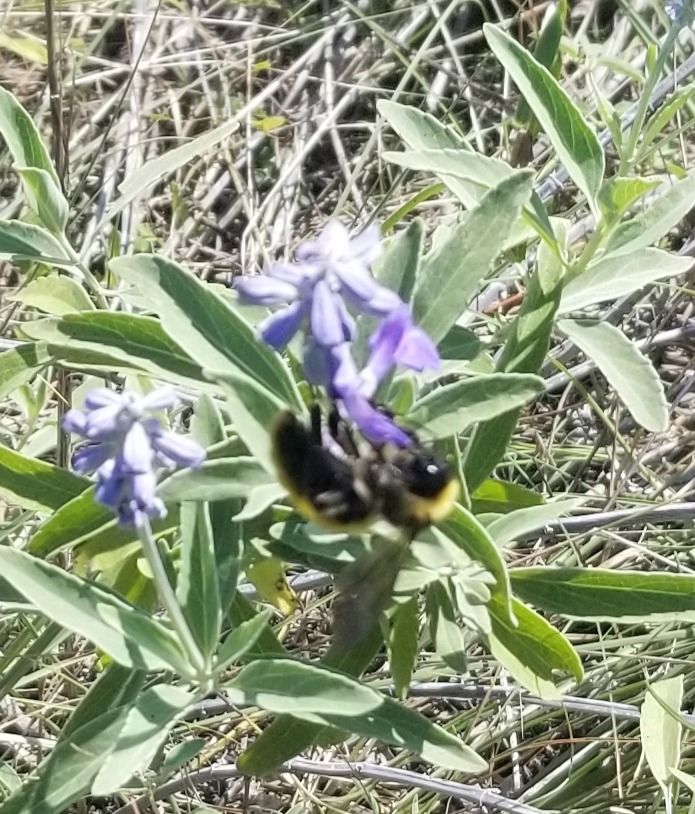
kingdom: Animalia
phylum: Arthropoda
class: Insecta
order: Hymenoptera
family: Apidae
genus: Bombus
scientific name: Bombus pensylvanicus
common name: Bumble bee
